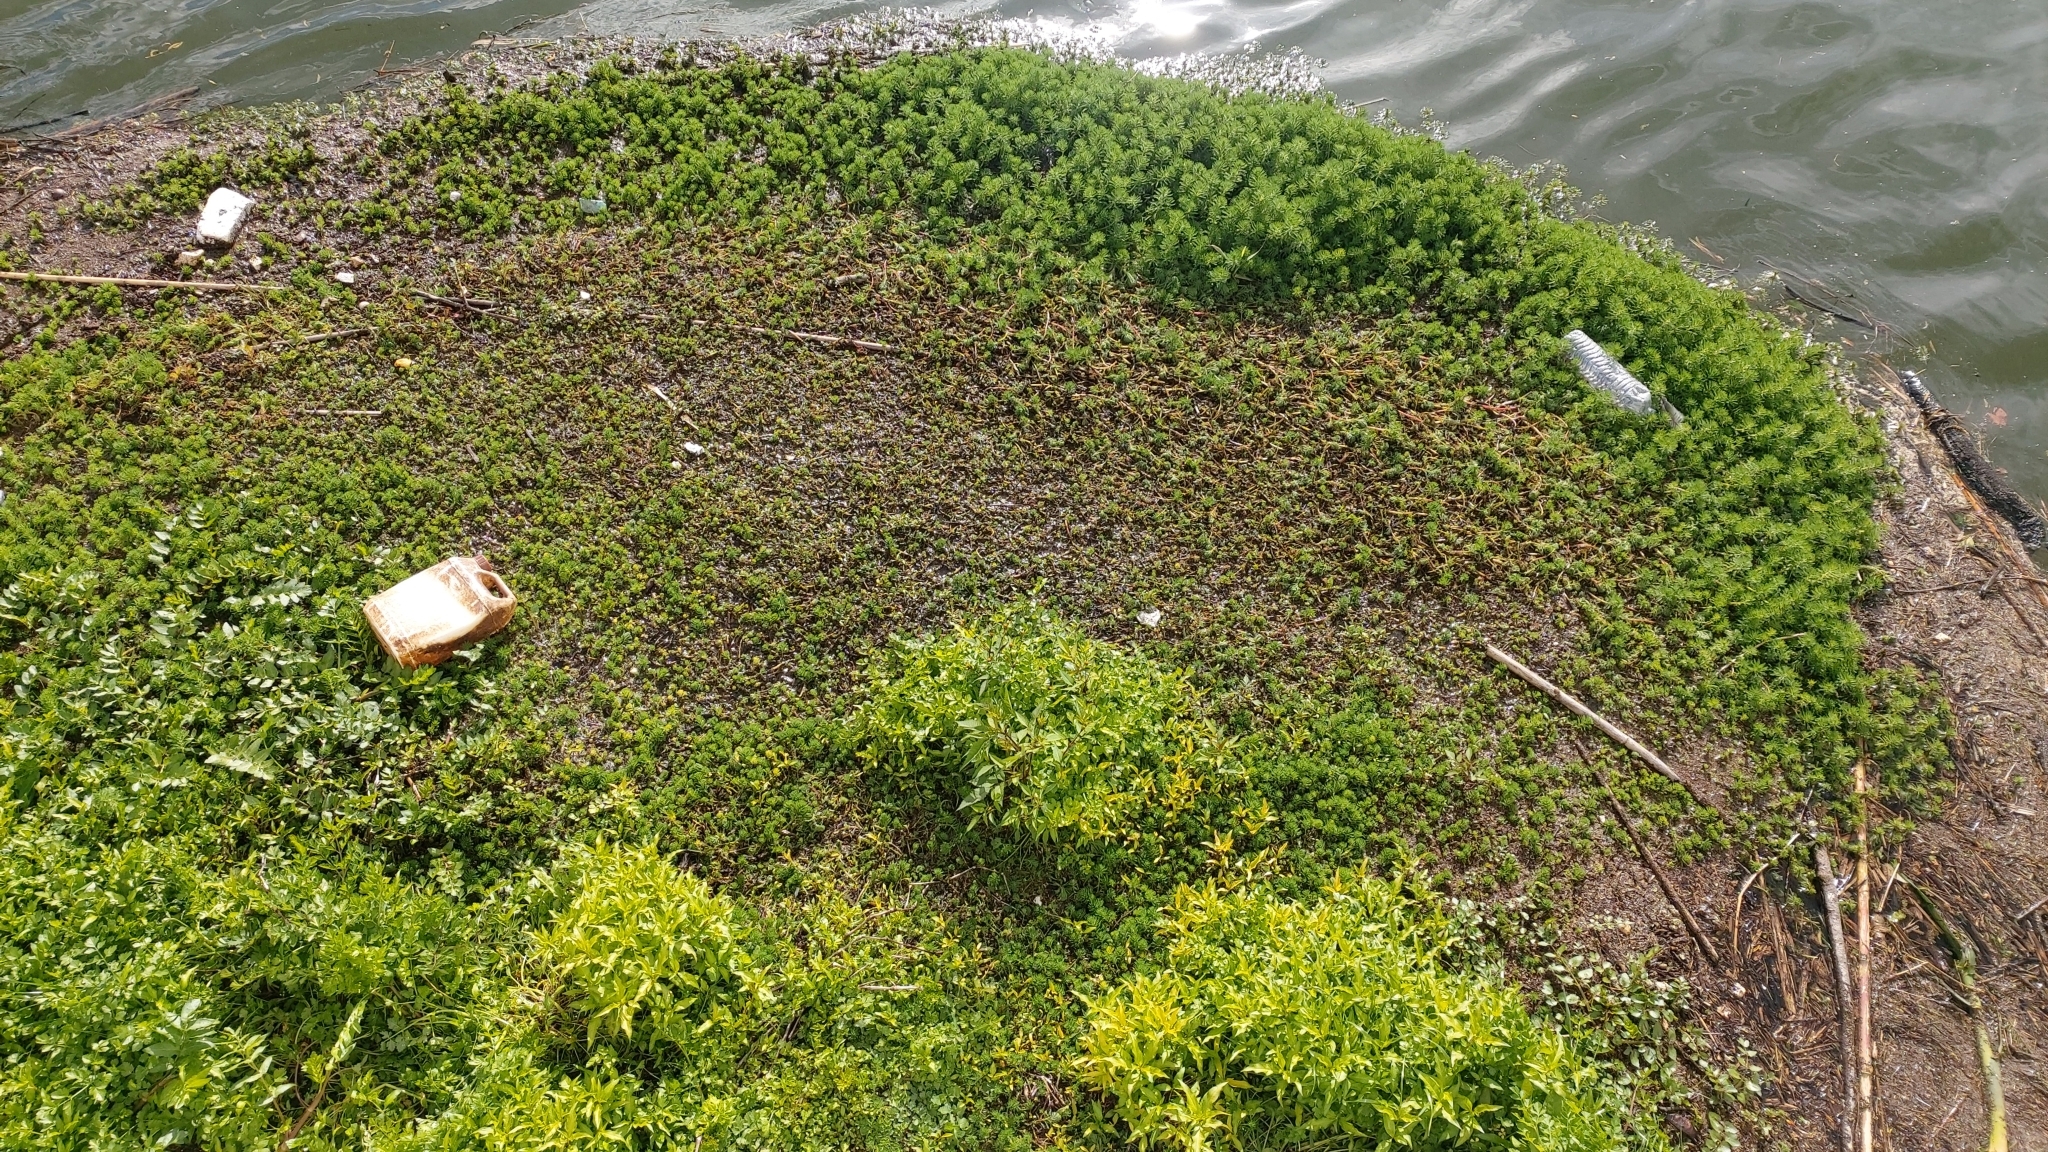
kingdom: Plantae
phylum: Tracheophyta
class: Magnoliopsida
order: Saxifragales
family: Haloragaceae
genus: Myriophyllum
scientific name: Myriophyllum aquaticum
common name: Parrot's feather
